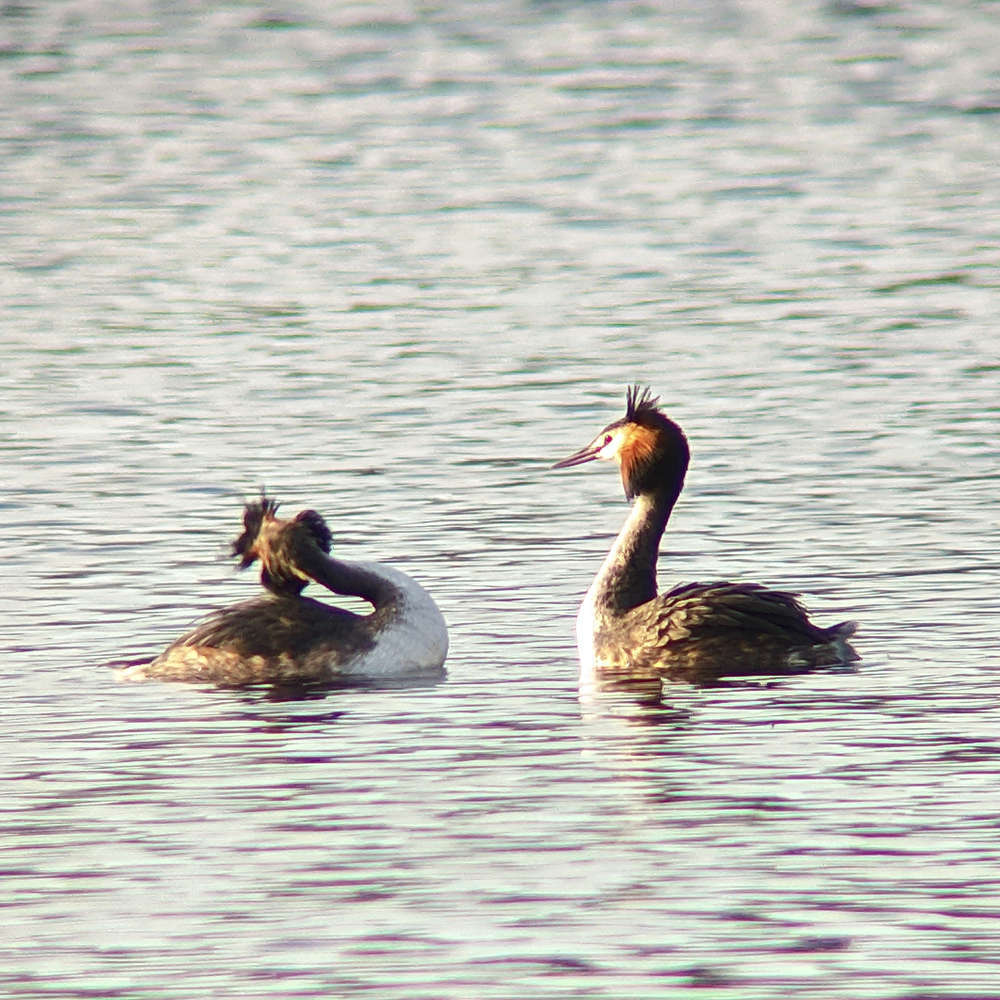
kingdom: Animalia
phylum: Chordata
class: Aves
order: Podicipediformes
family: Podicipedidae
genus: Podiceps
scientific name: Podiceps cristatus
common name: Great crested grebe
